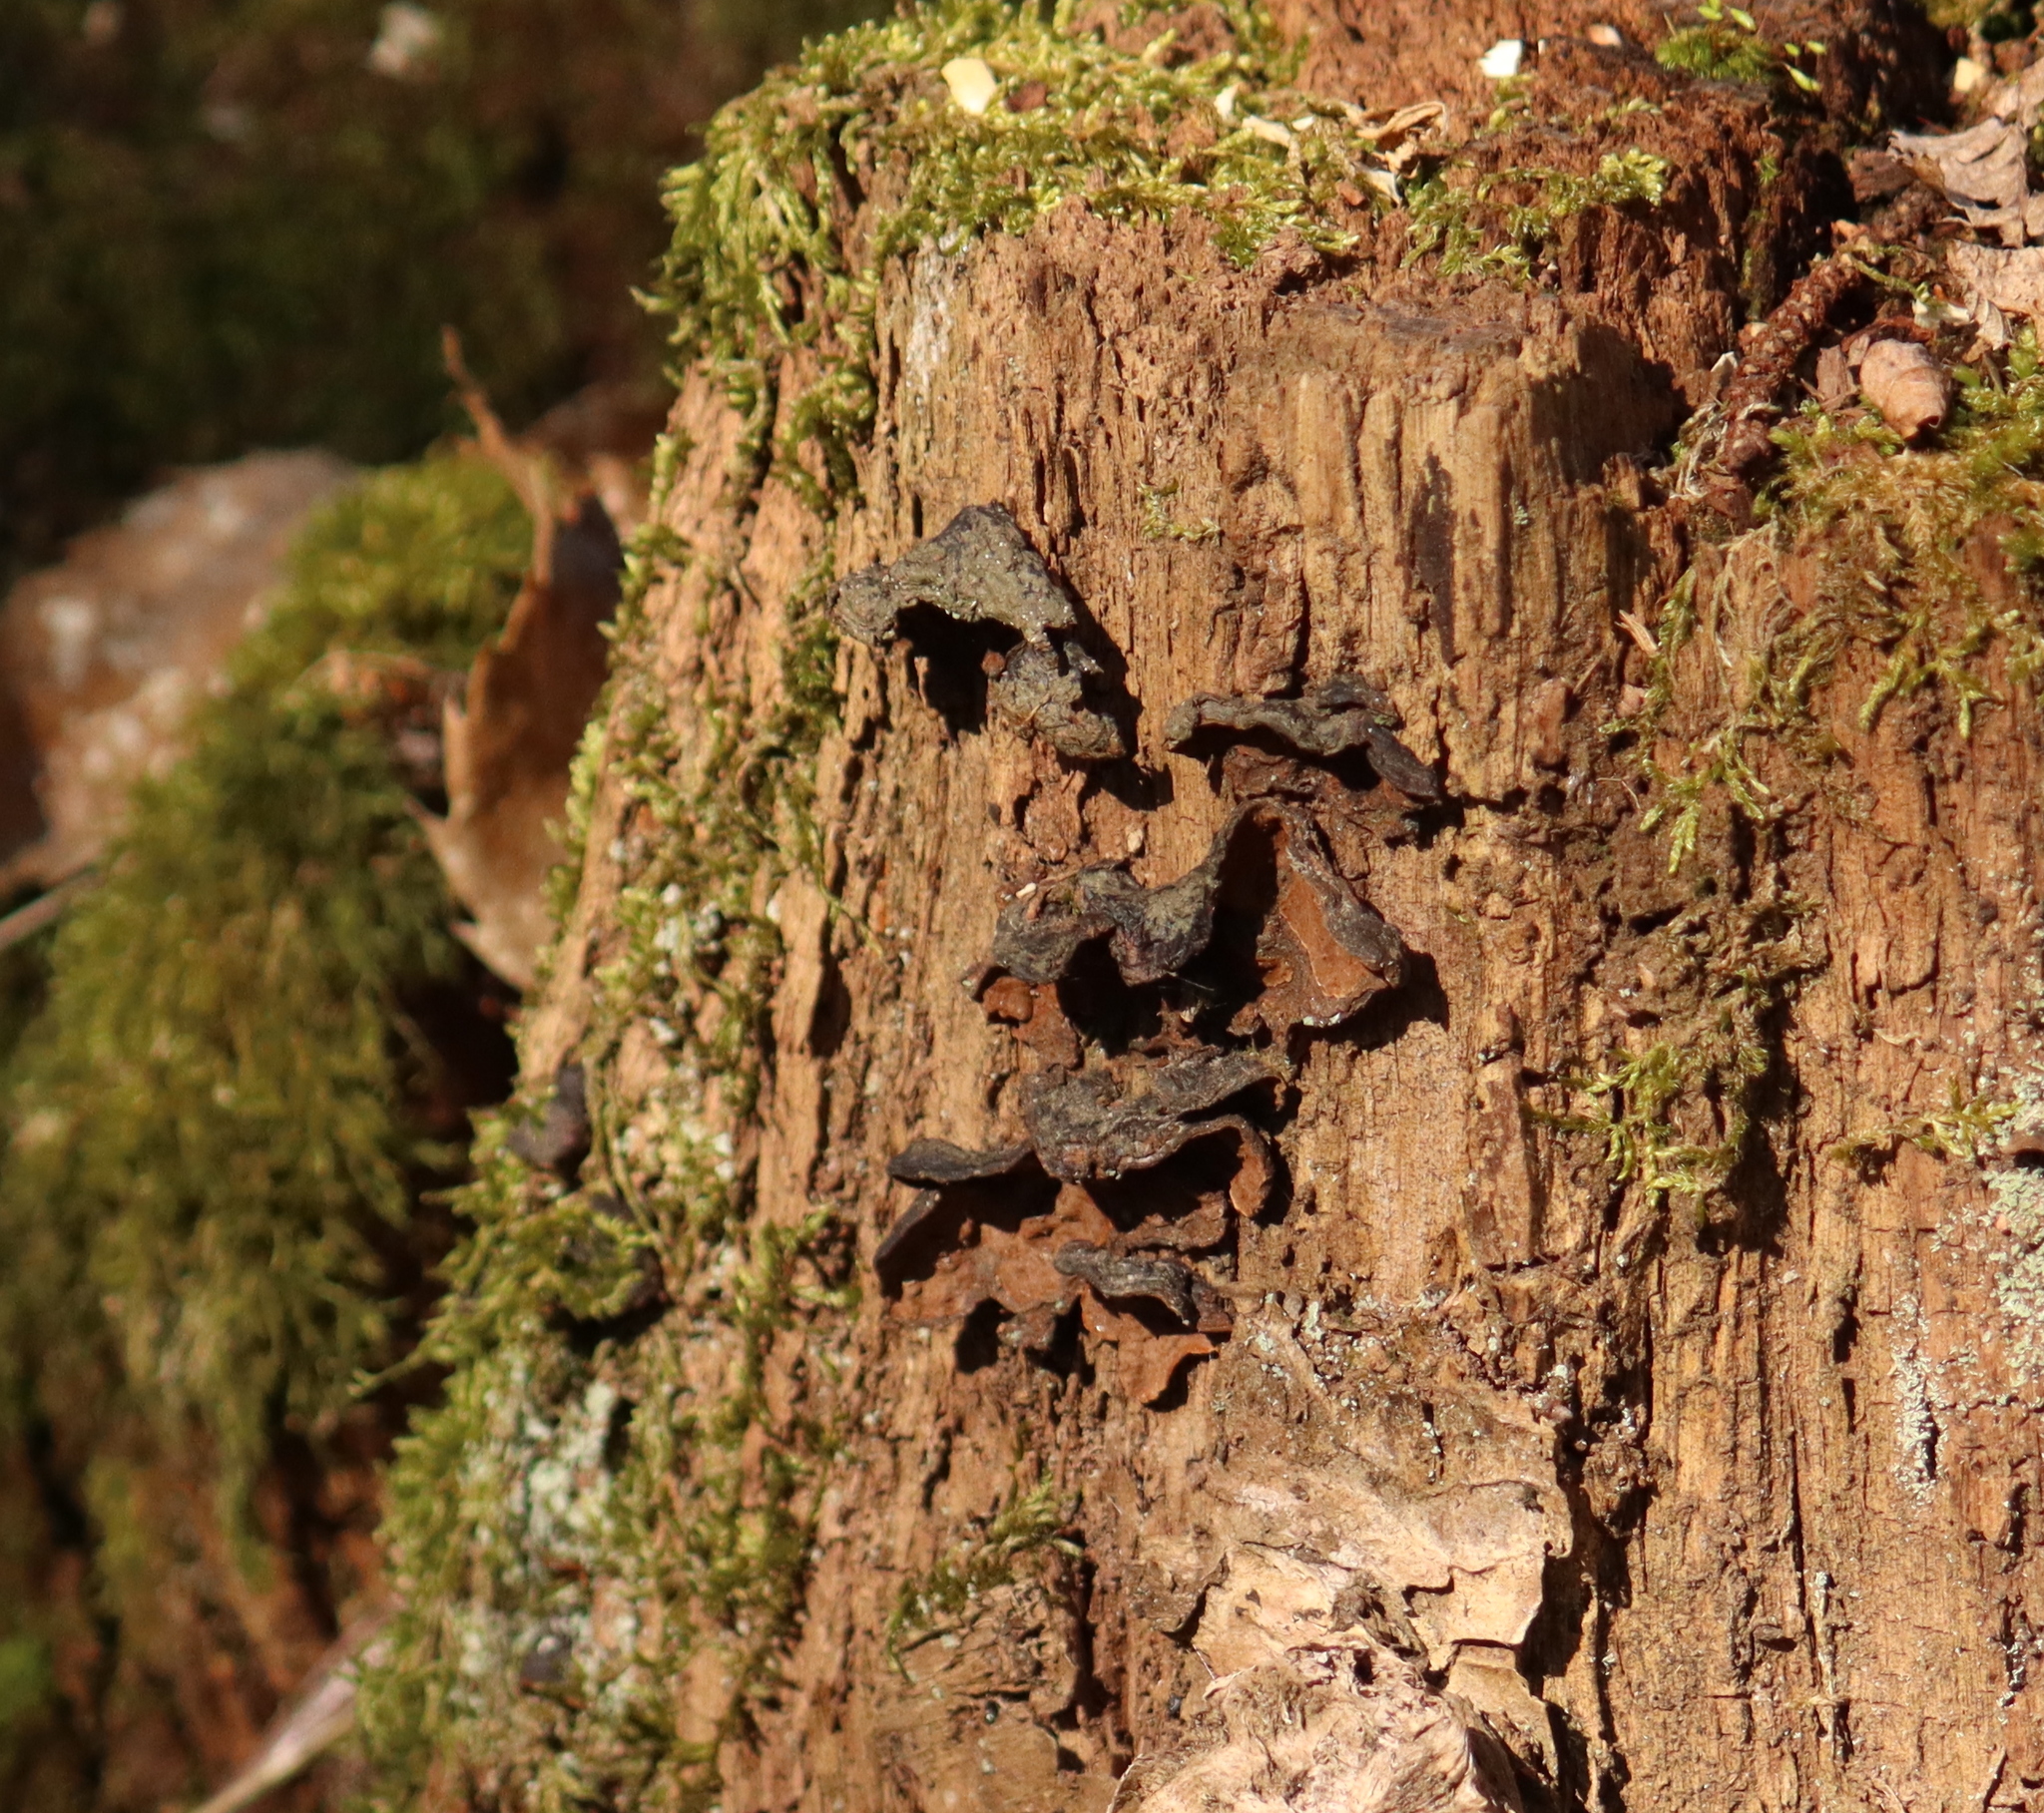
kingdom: Fungi
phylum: Basidiomycota
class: Agaricomycetes
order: Hymenochaetales
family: Hymenochaetaceae
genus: Hymenochaete
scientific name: Hymenochaete rubiginosa
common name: Oak curtain crust
